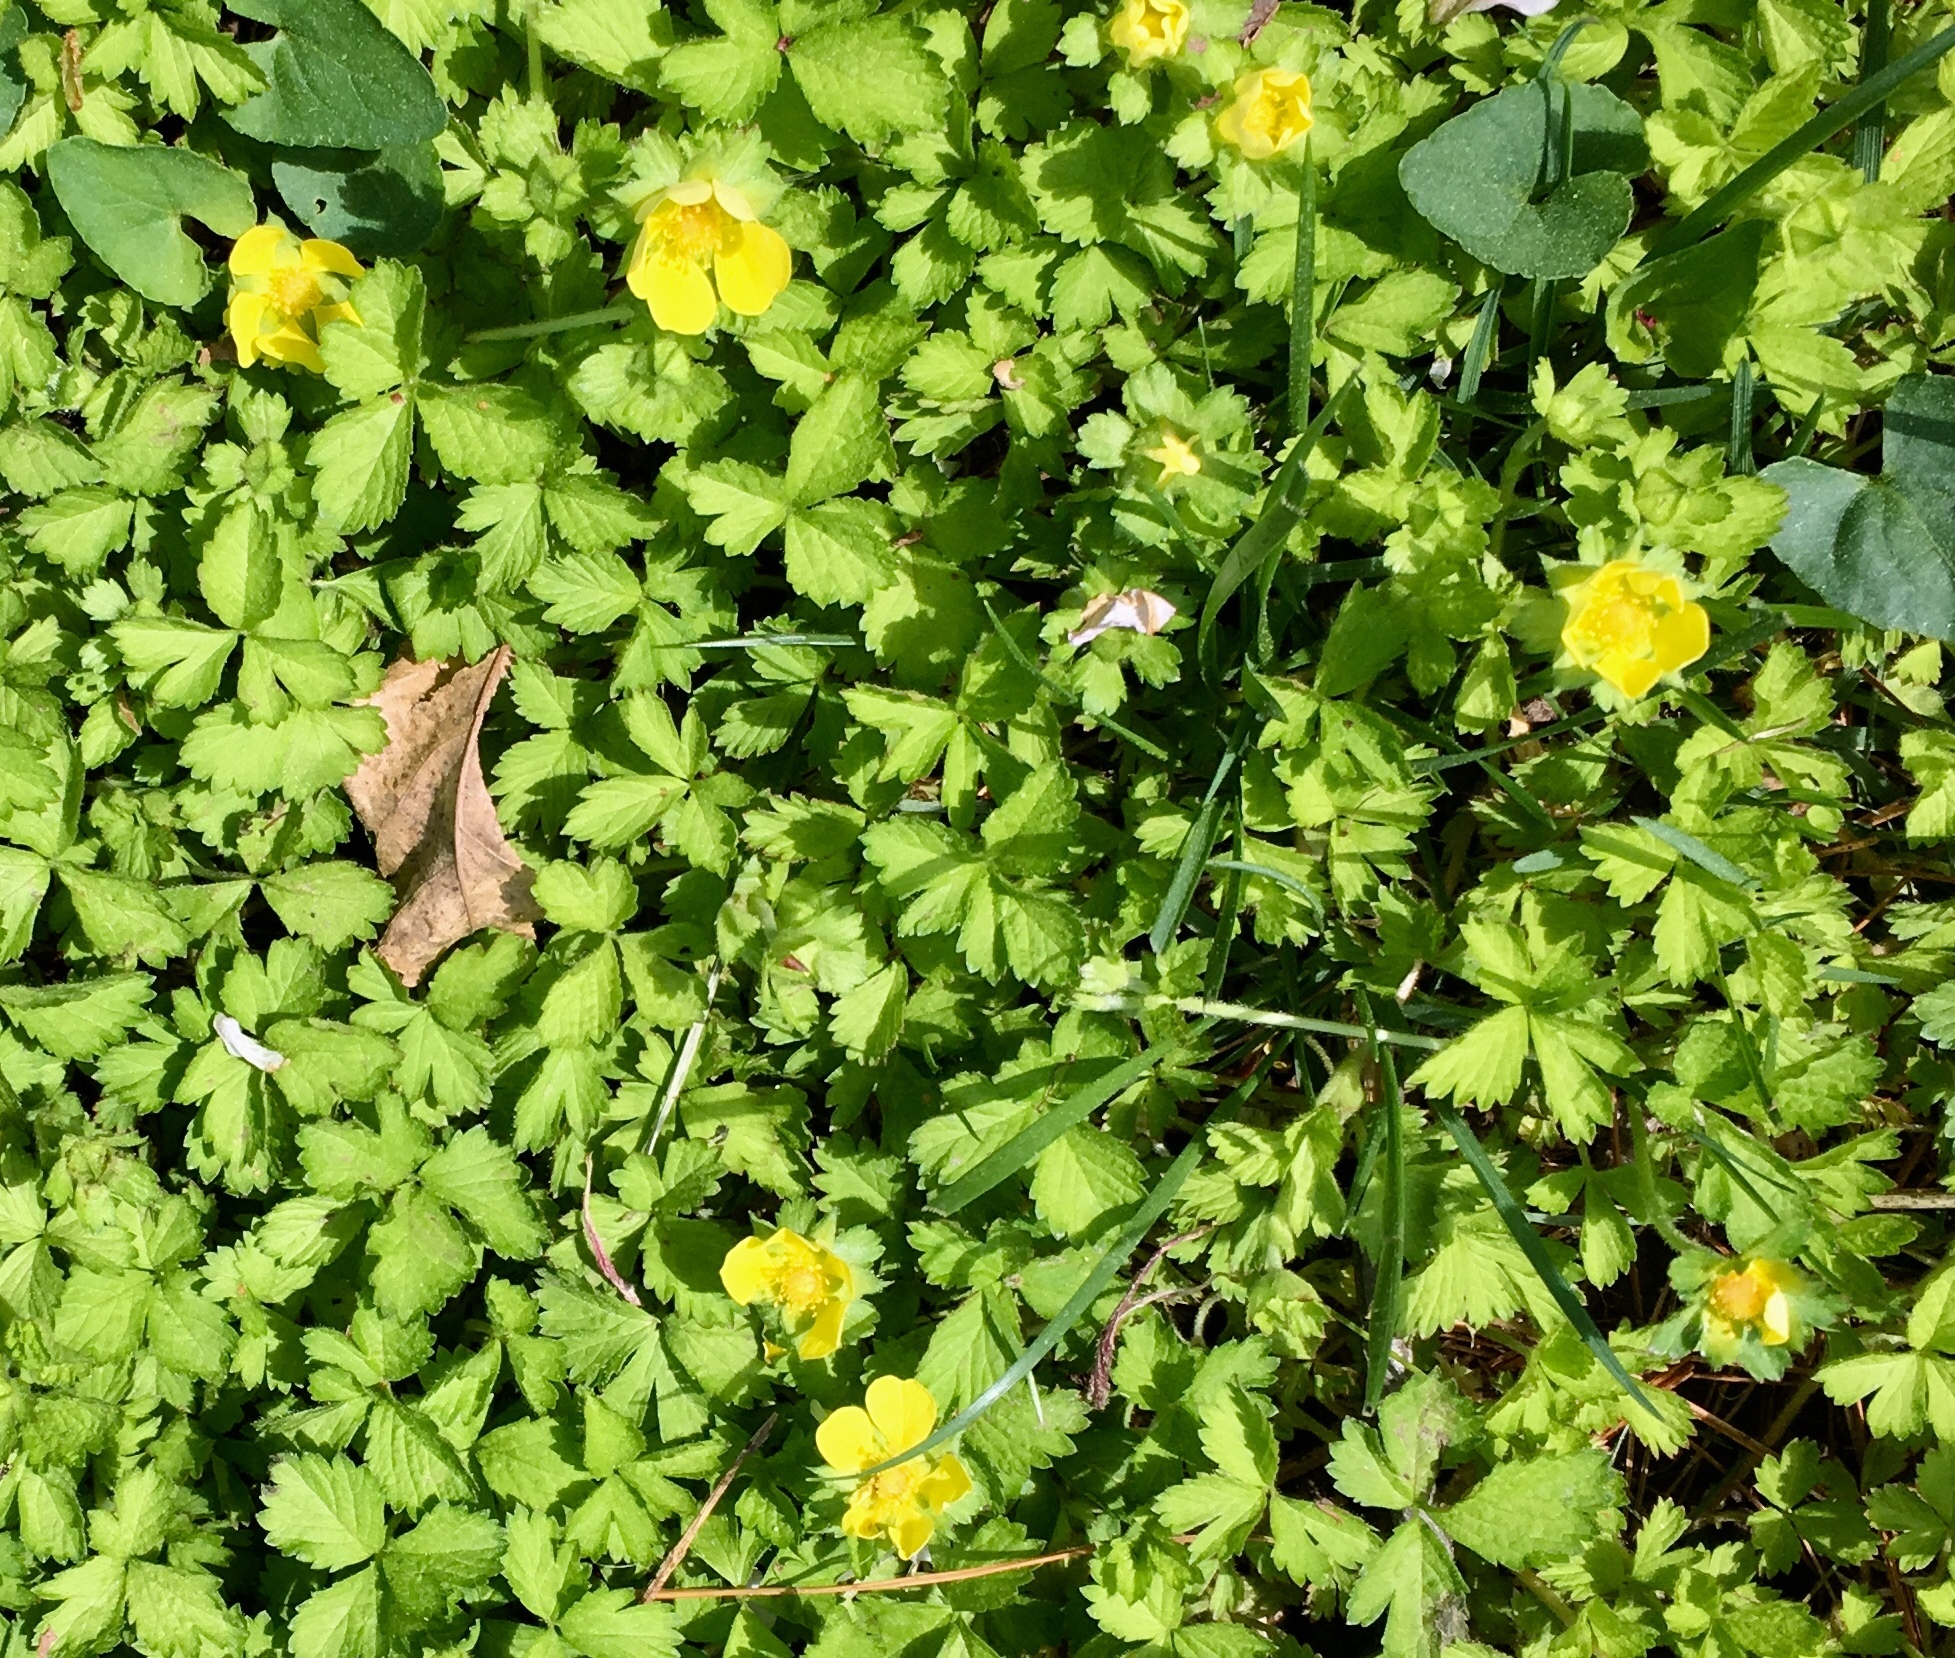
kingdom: Plantae
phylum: Tracheophyta
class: Magnoliopsida
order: Rosales
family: Rosaceae
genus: Potentilla
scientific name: Potentilla indica
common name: Yellow-flowered strawberry
